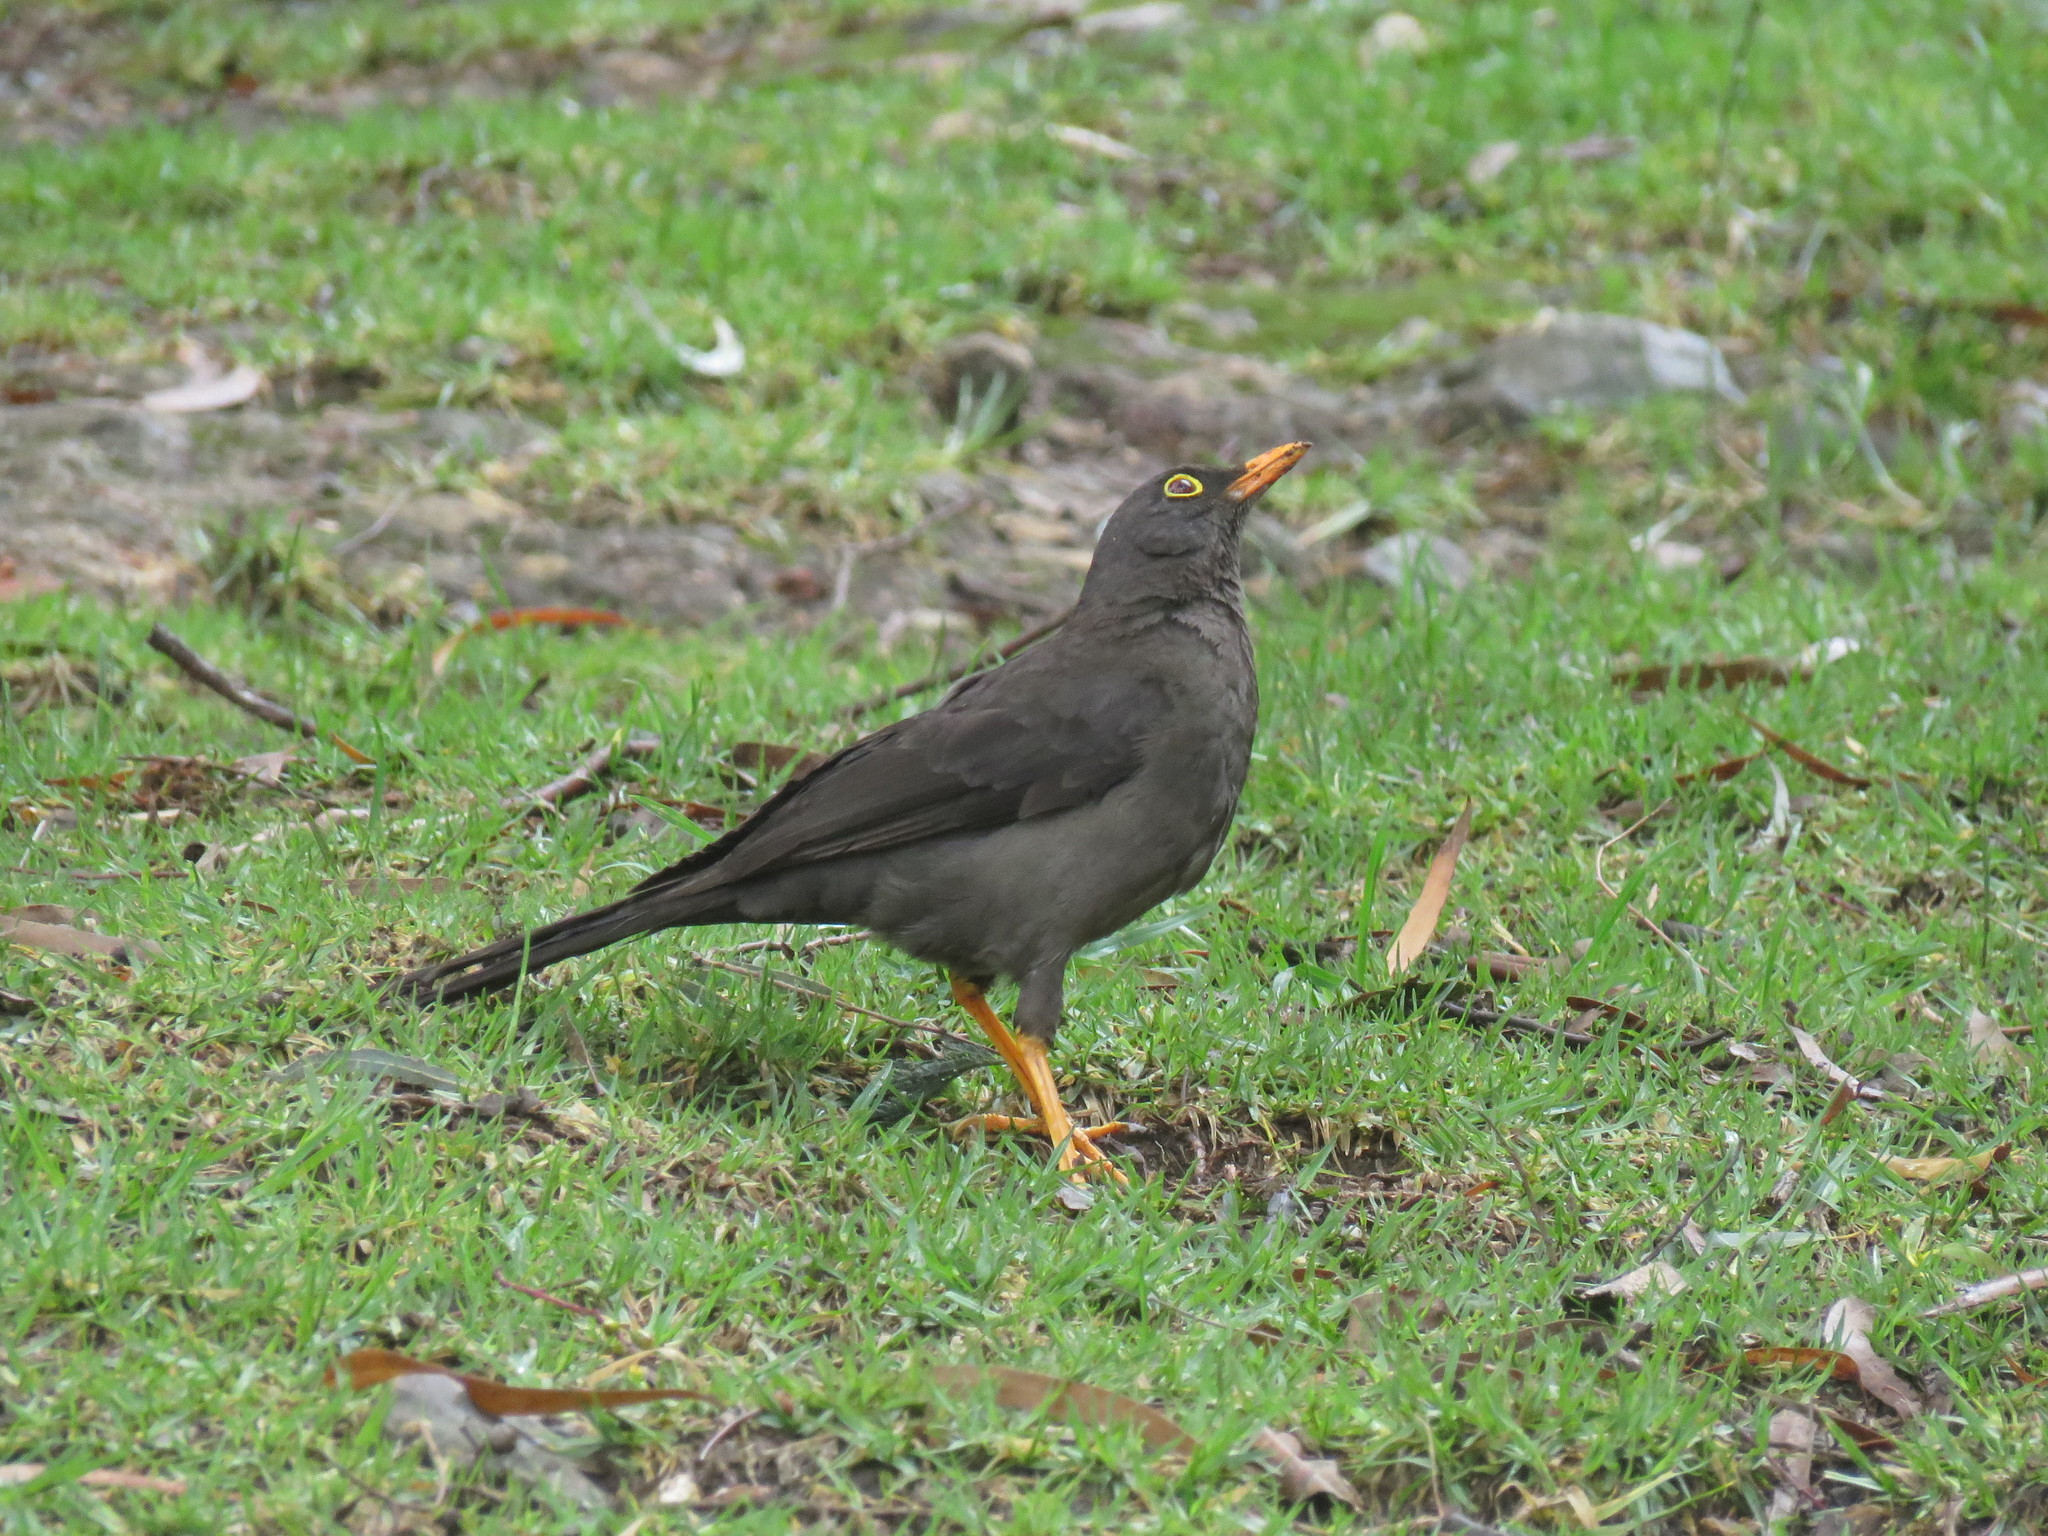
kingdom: Animalia
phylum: Chordata
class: Aves
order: Passeriformes
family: Turdidae
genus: Turdus
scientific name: Turdus fuscater
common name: Great thrush
